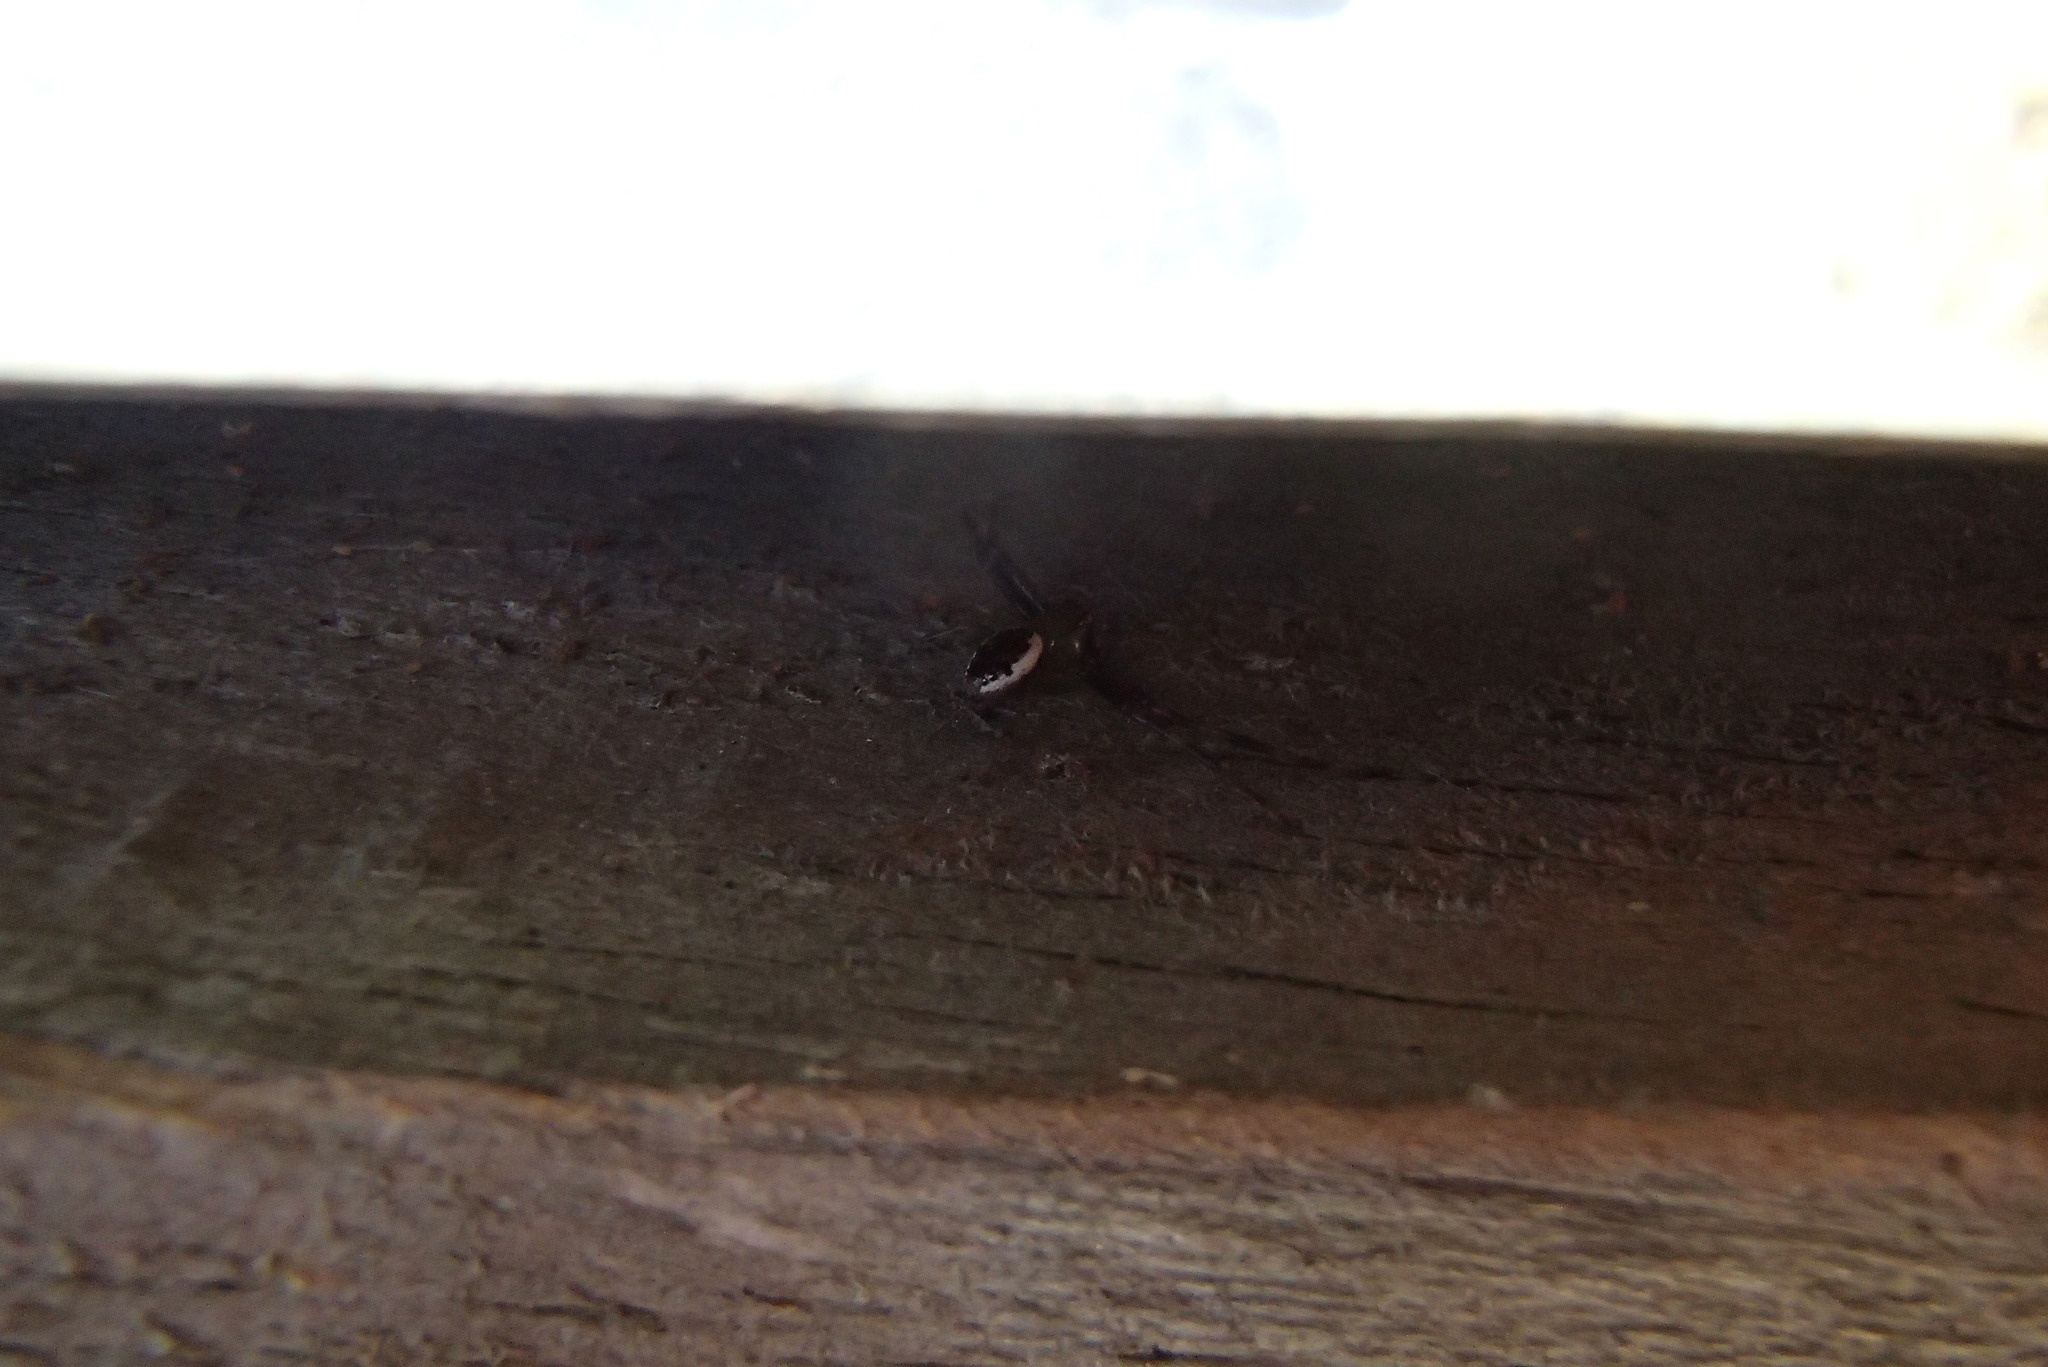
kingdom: Animalia
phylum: Arthropoda
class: Arachnida
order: Araneae
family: Thomisidae
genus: Australomisidia
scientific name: Australomisidia pilula
